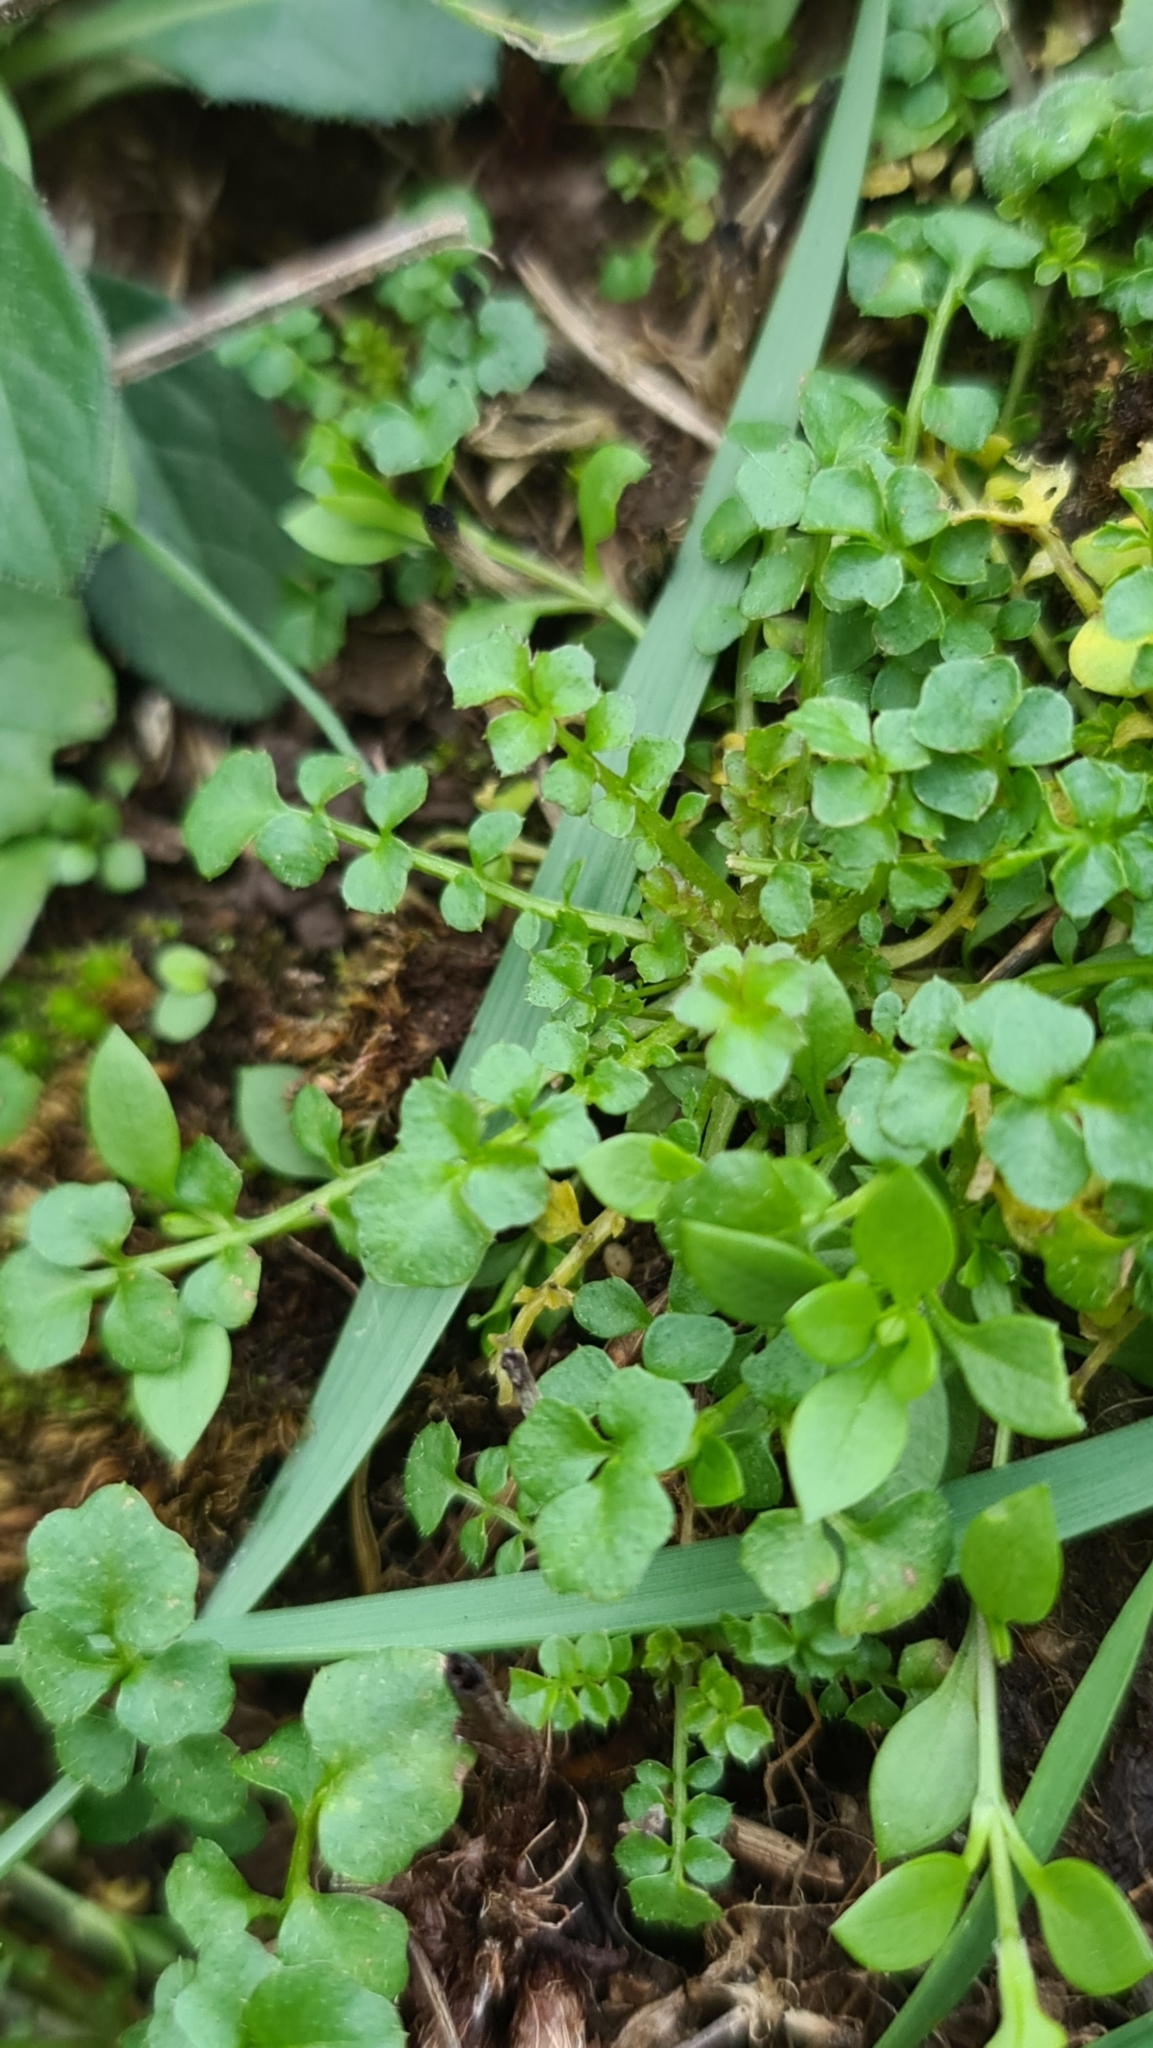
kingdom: Plantae
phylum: Tracheophyta
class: Magnoliopsida
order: Brassicales
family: Brassicaceae
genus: Cardamine
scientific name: Cardamine hirsuta
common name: Hairy bittercress
